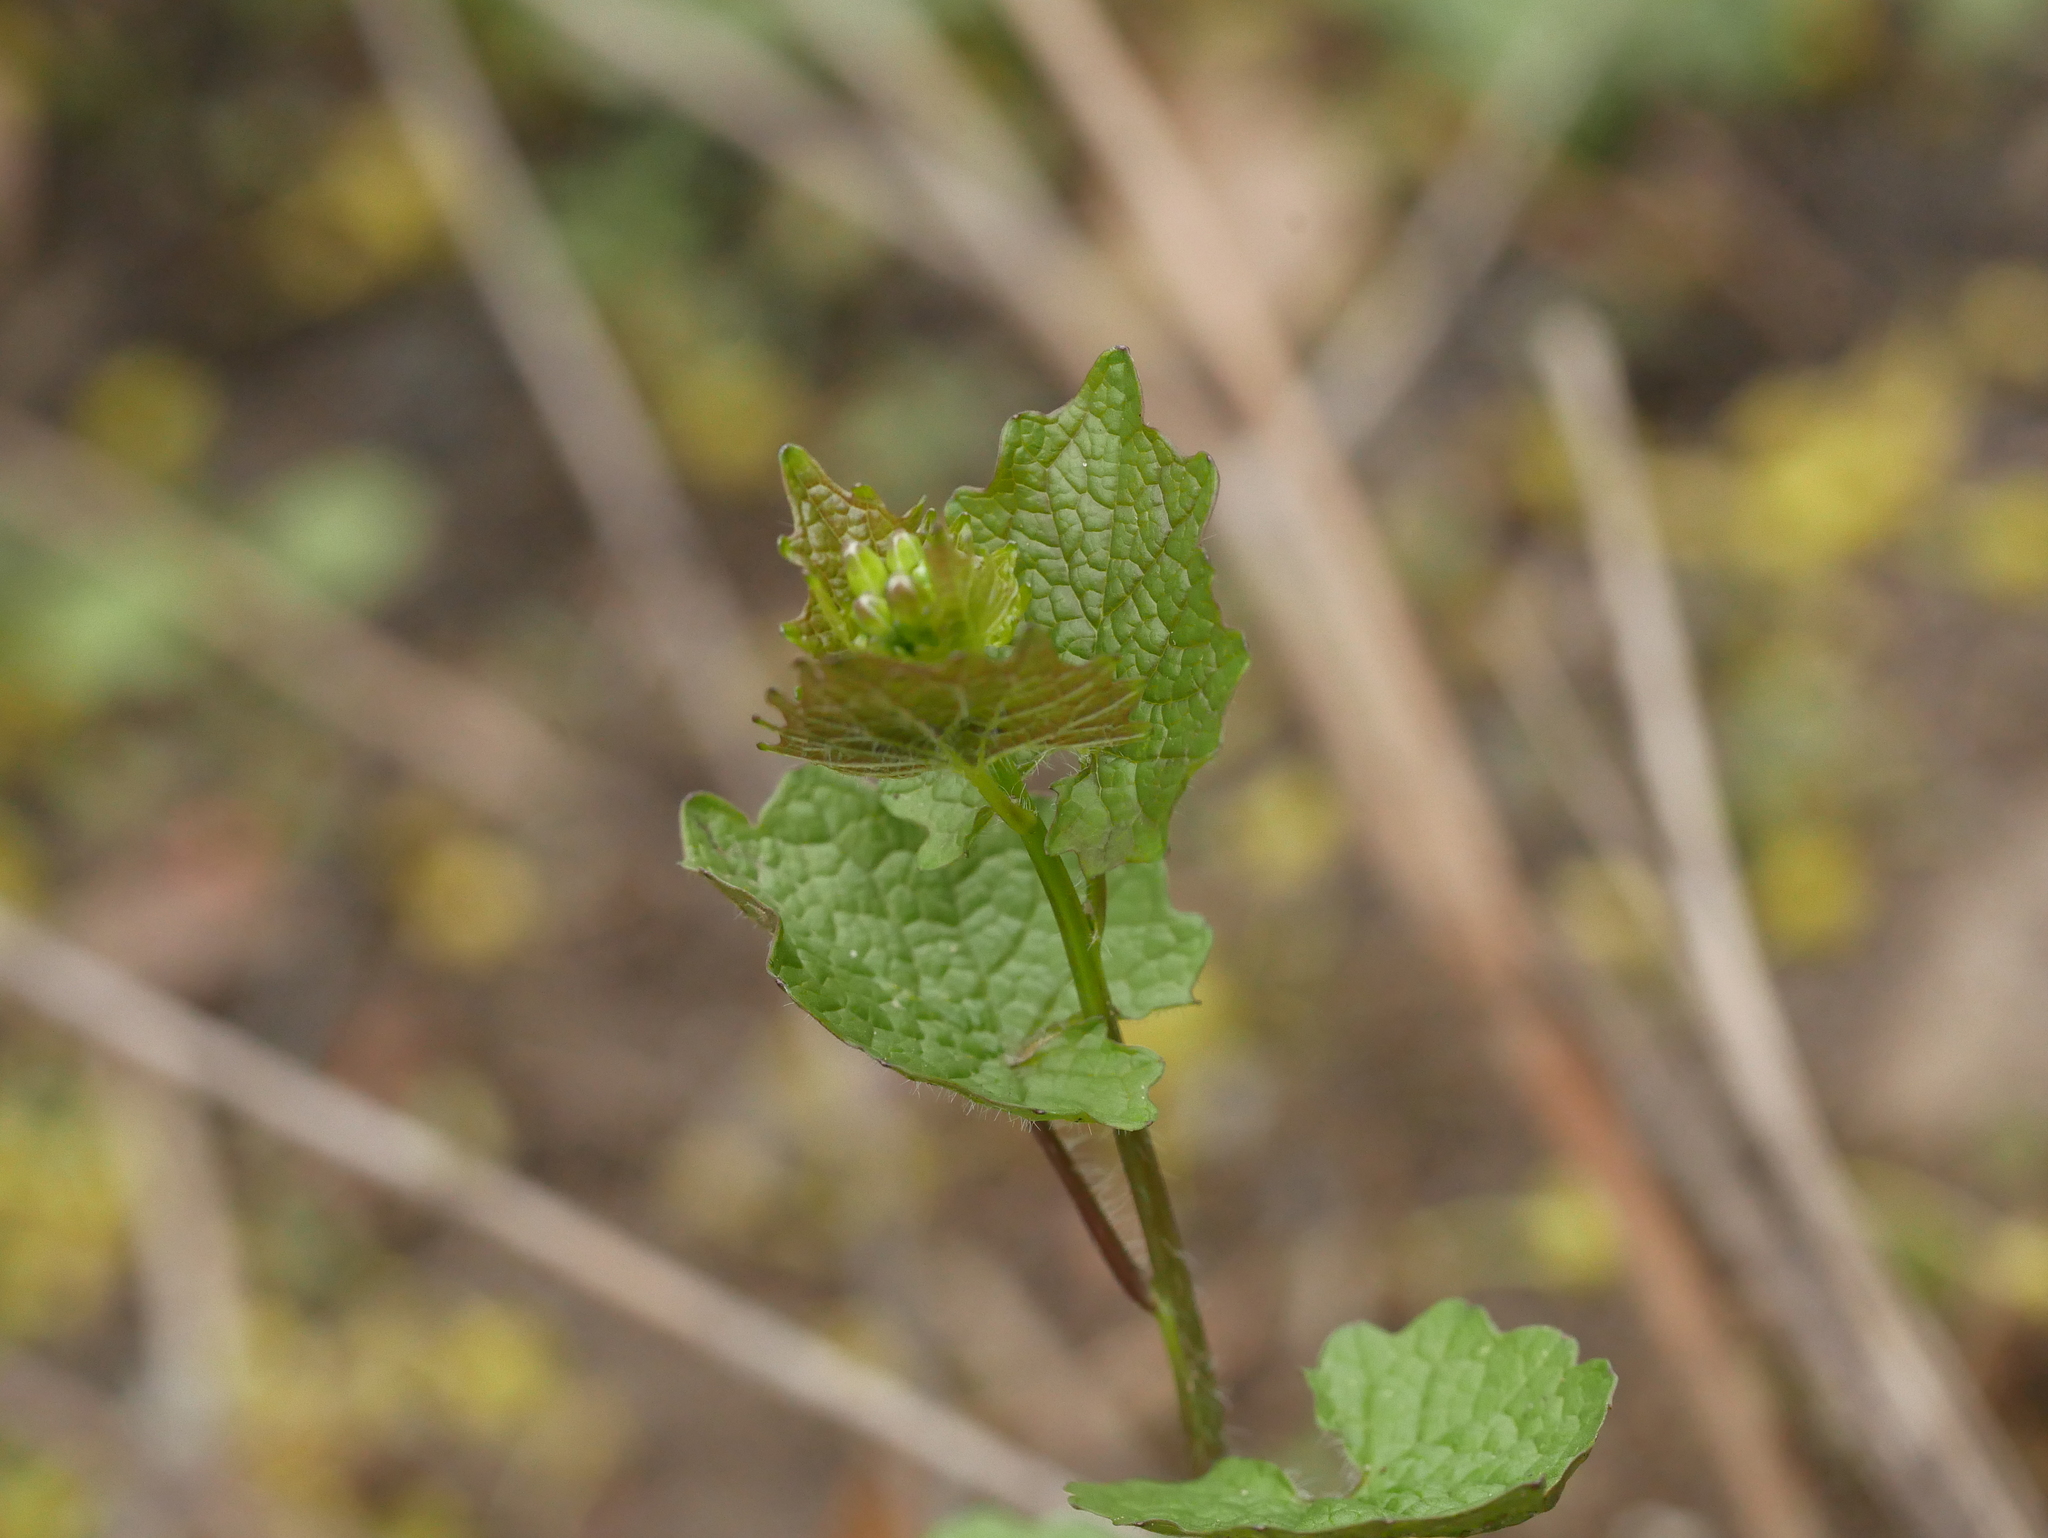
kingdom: Plantae
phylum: Tracheophyta
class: Magnoliopsida
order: Brassicales
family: Brassicaceae
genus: Alliaria
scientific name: Alliaria petiolata
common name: Garlic mustard
